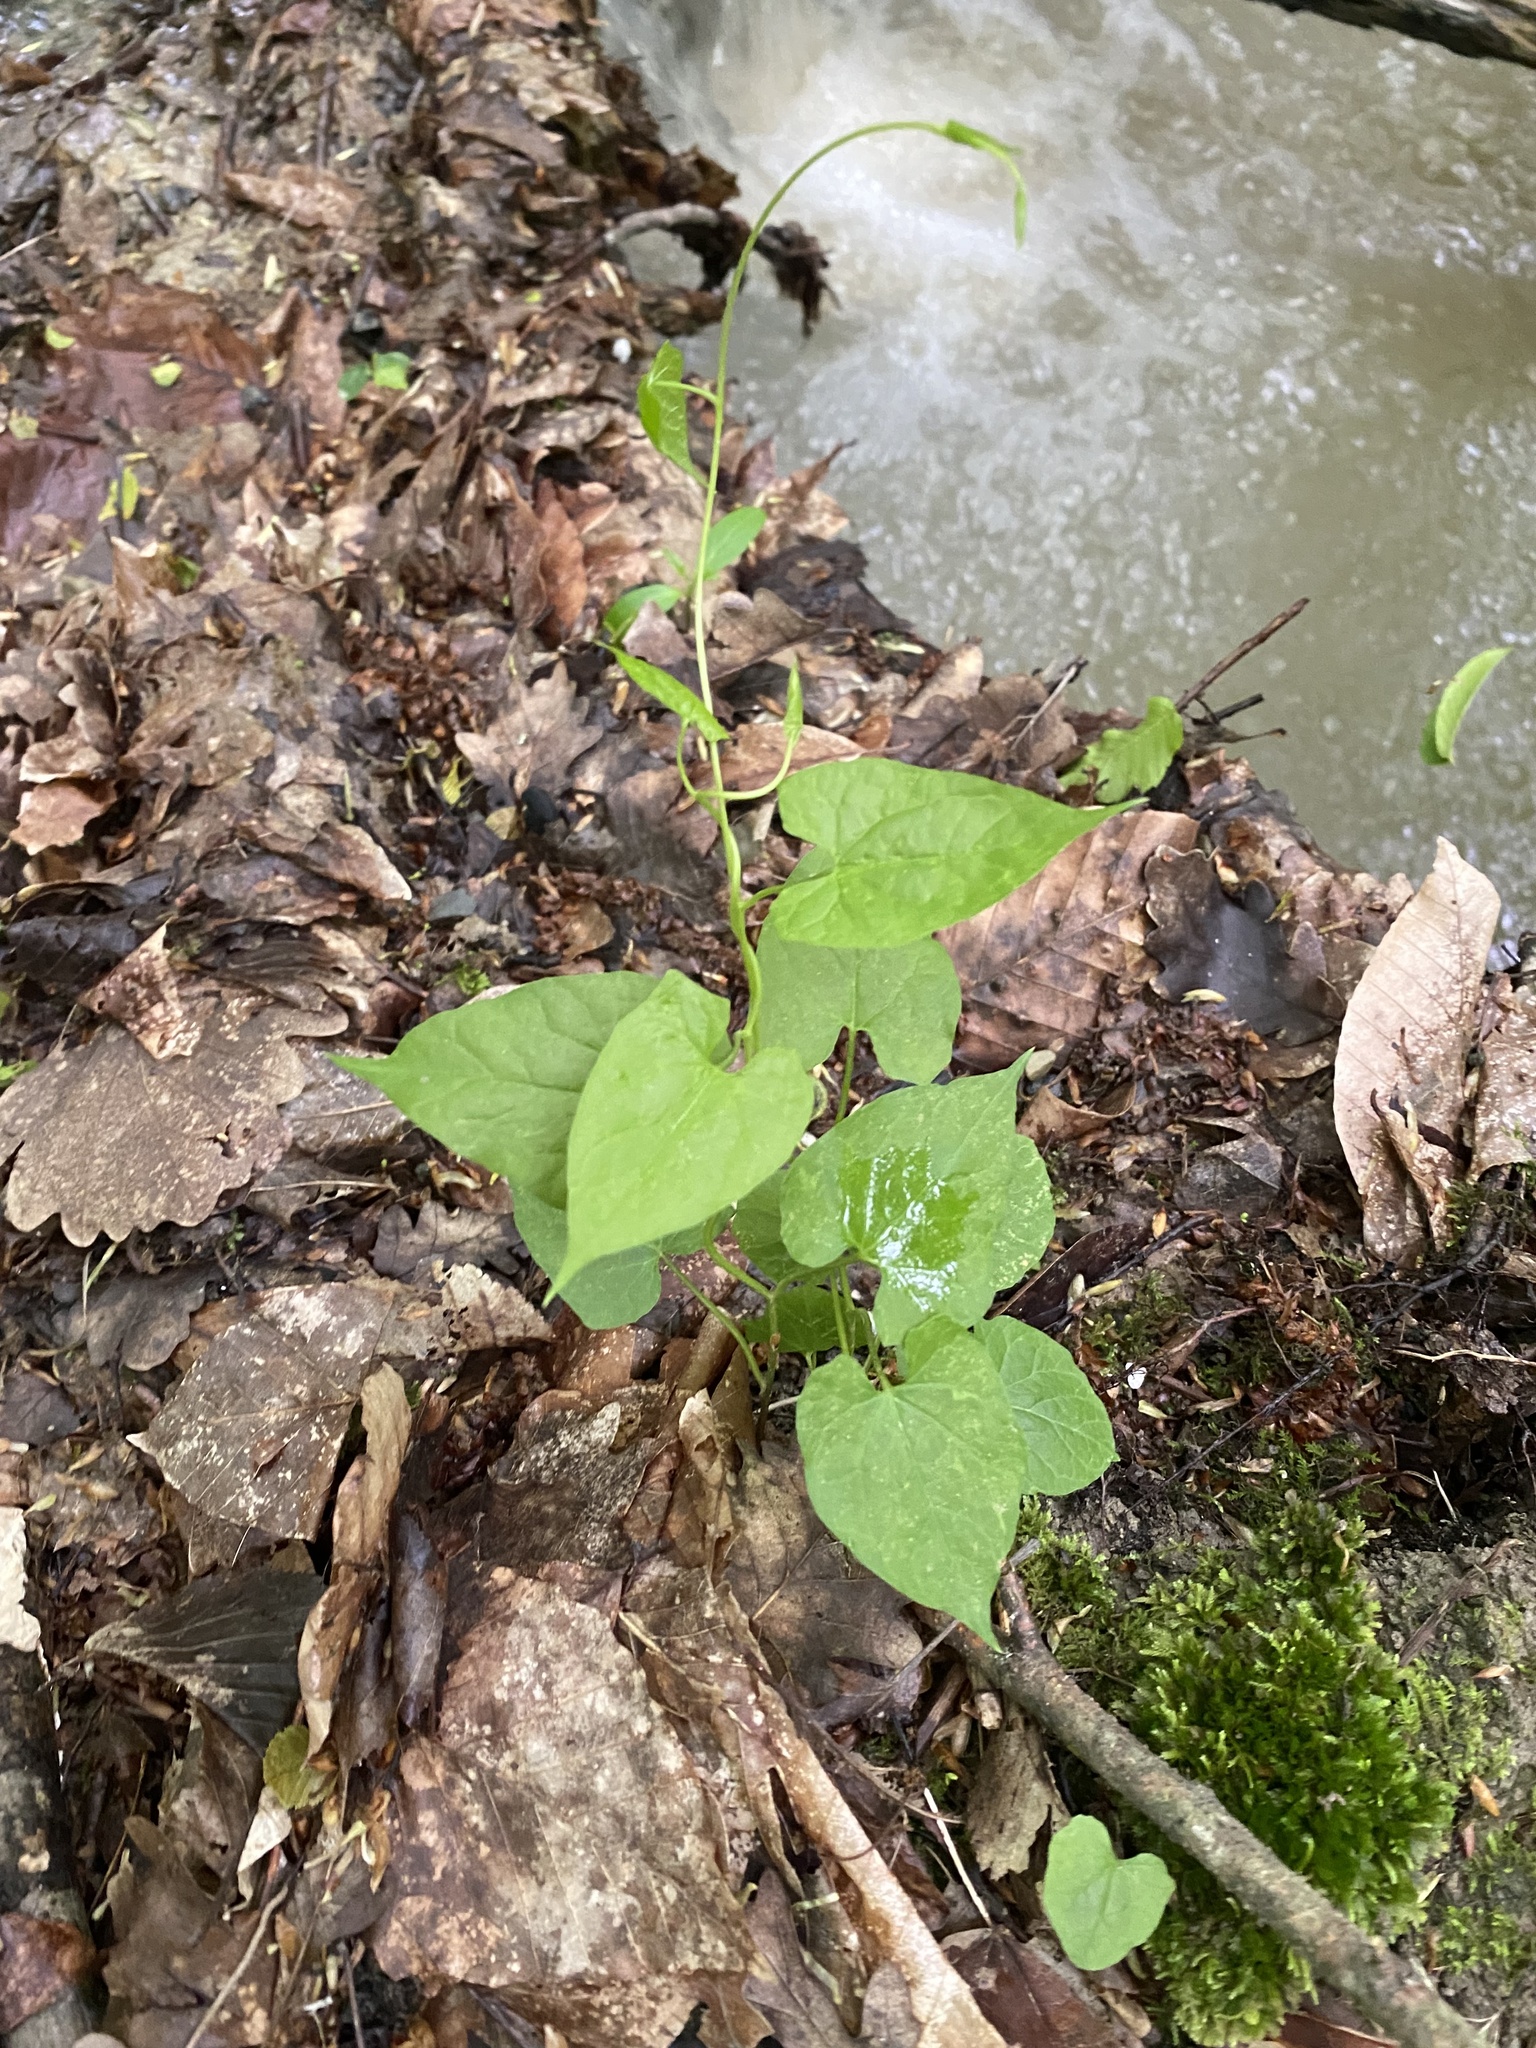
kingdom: Plantae
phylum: Tracheophyta
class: Magnoliopsida
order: Caryophyllales
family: Polygonaceae
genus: Fallopia
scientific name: Fallopia convolvulus
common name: Black bindweed
